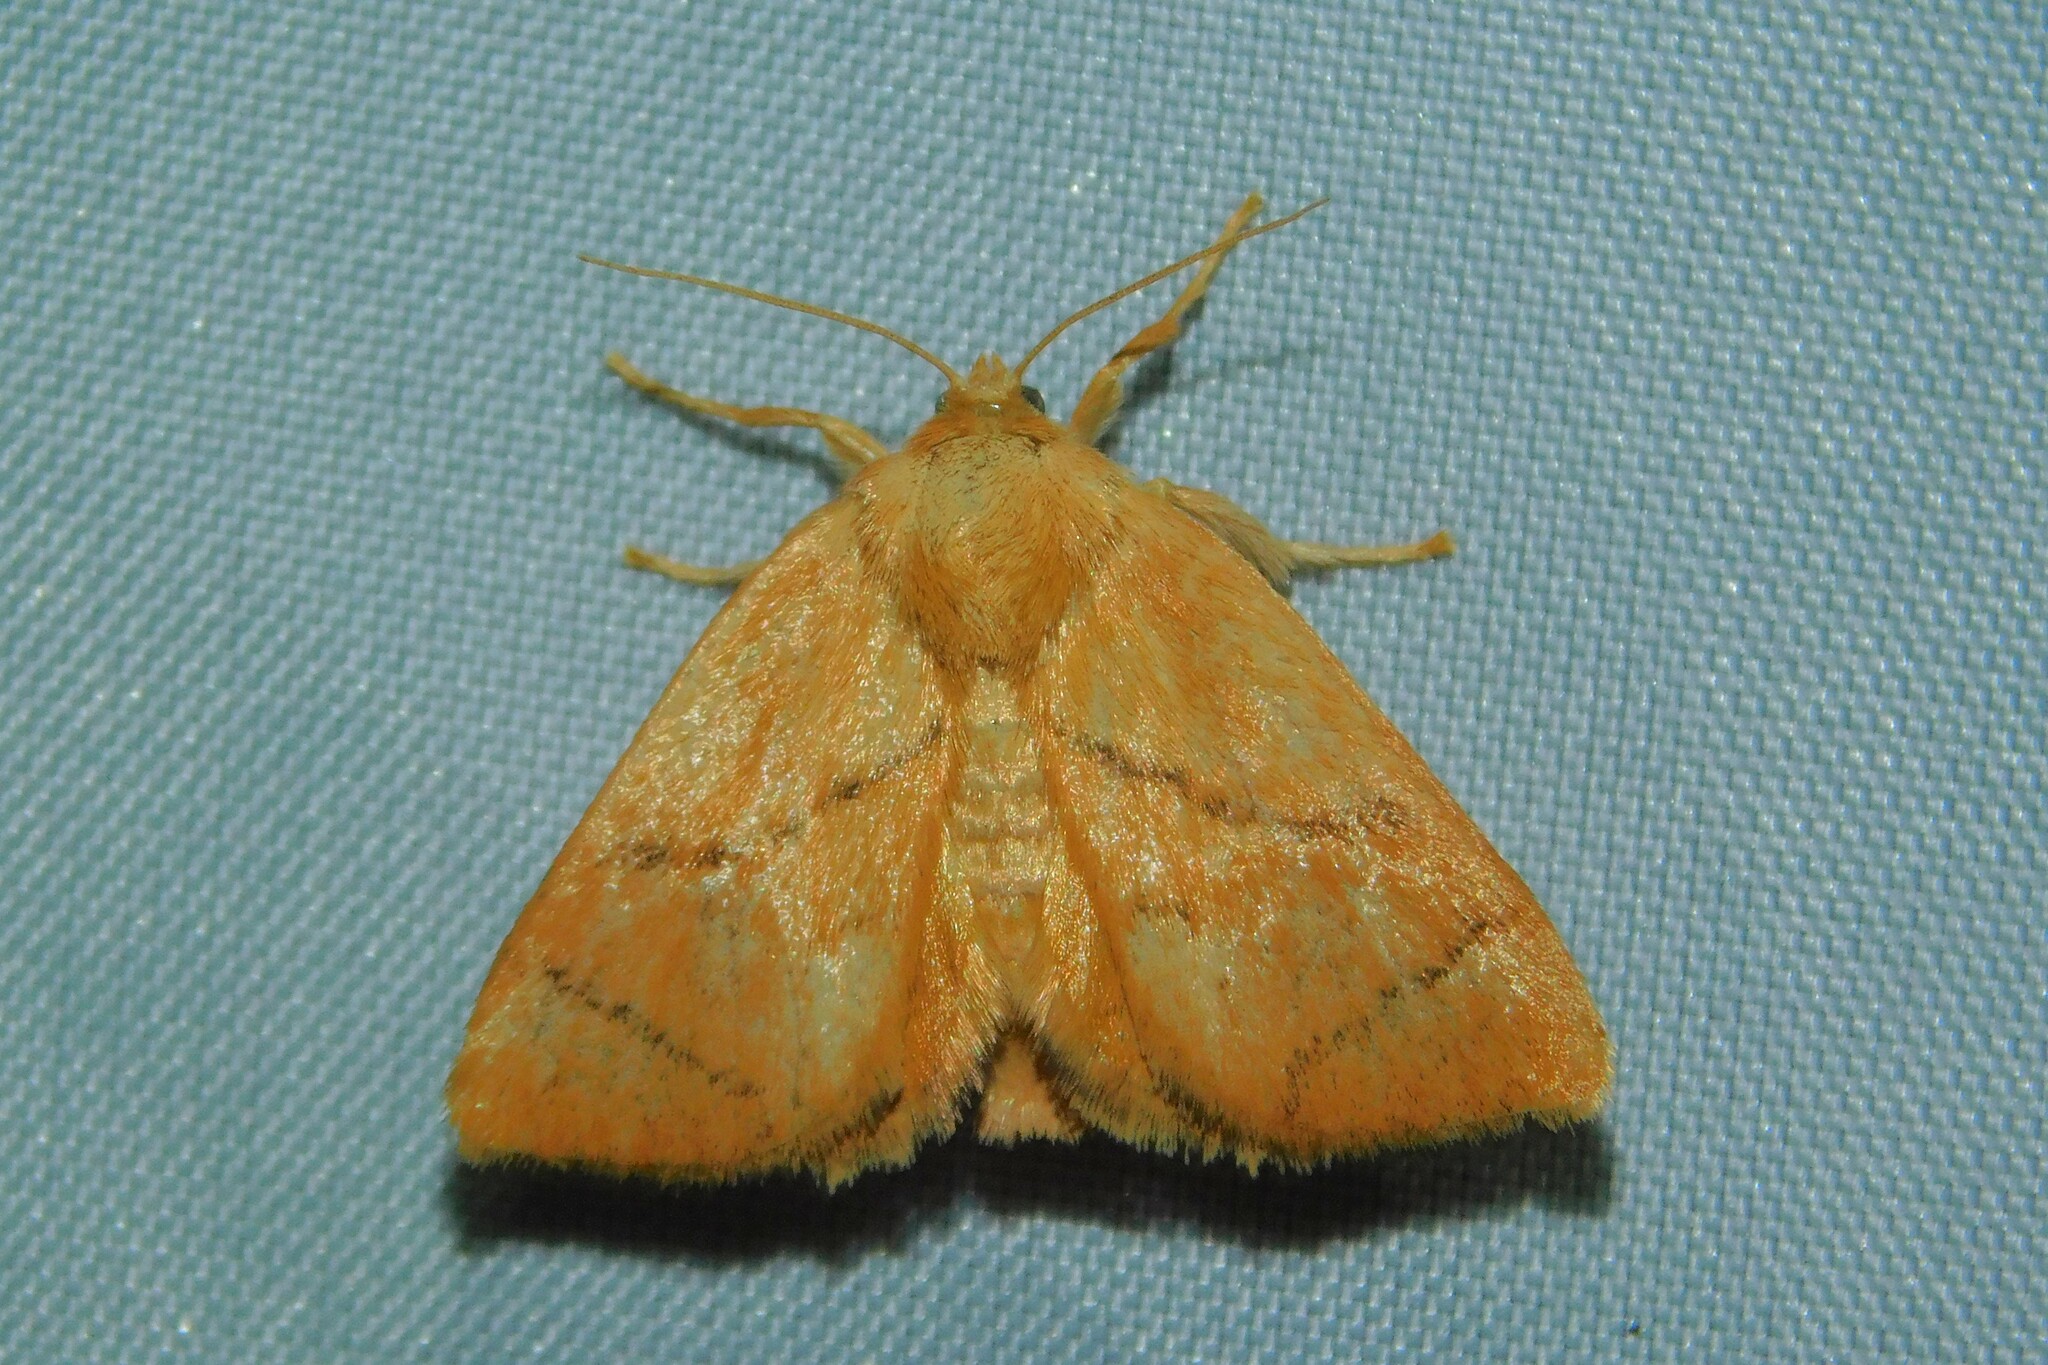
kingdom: Animalia
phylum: Arthropoda
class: Insecta
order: Lepidoptera
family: Limacodidae
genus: Apoda
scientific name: Apoda limacodes
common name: Festoon
